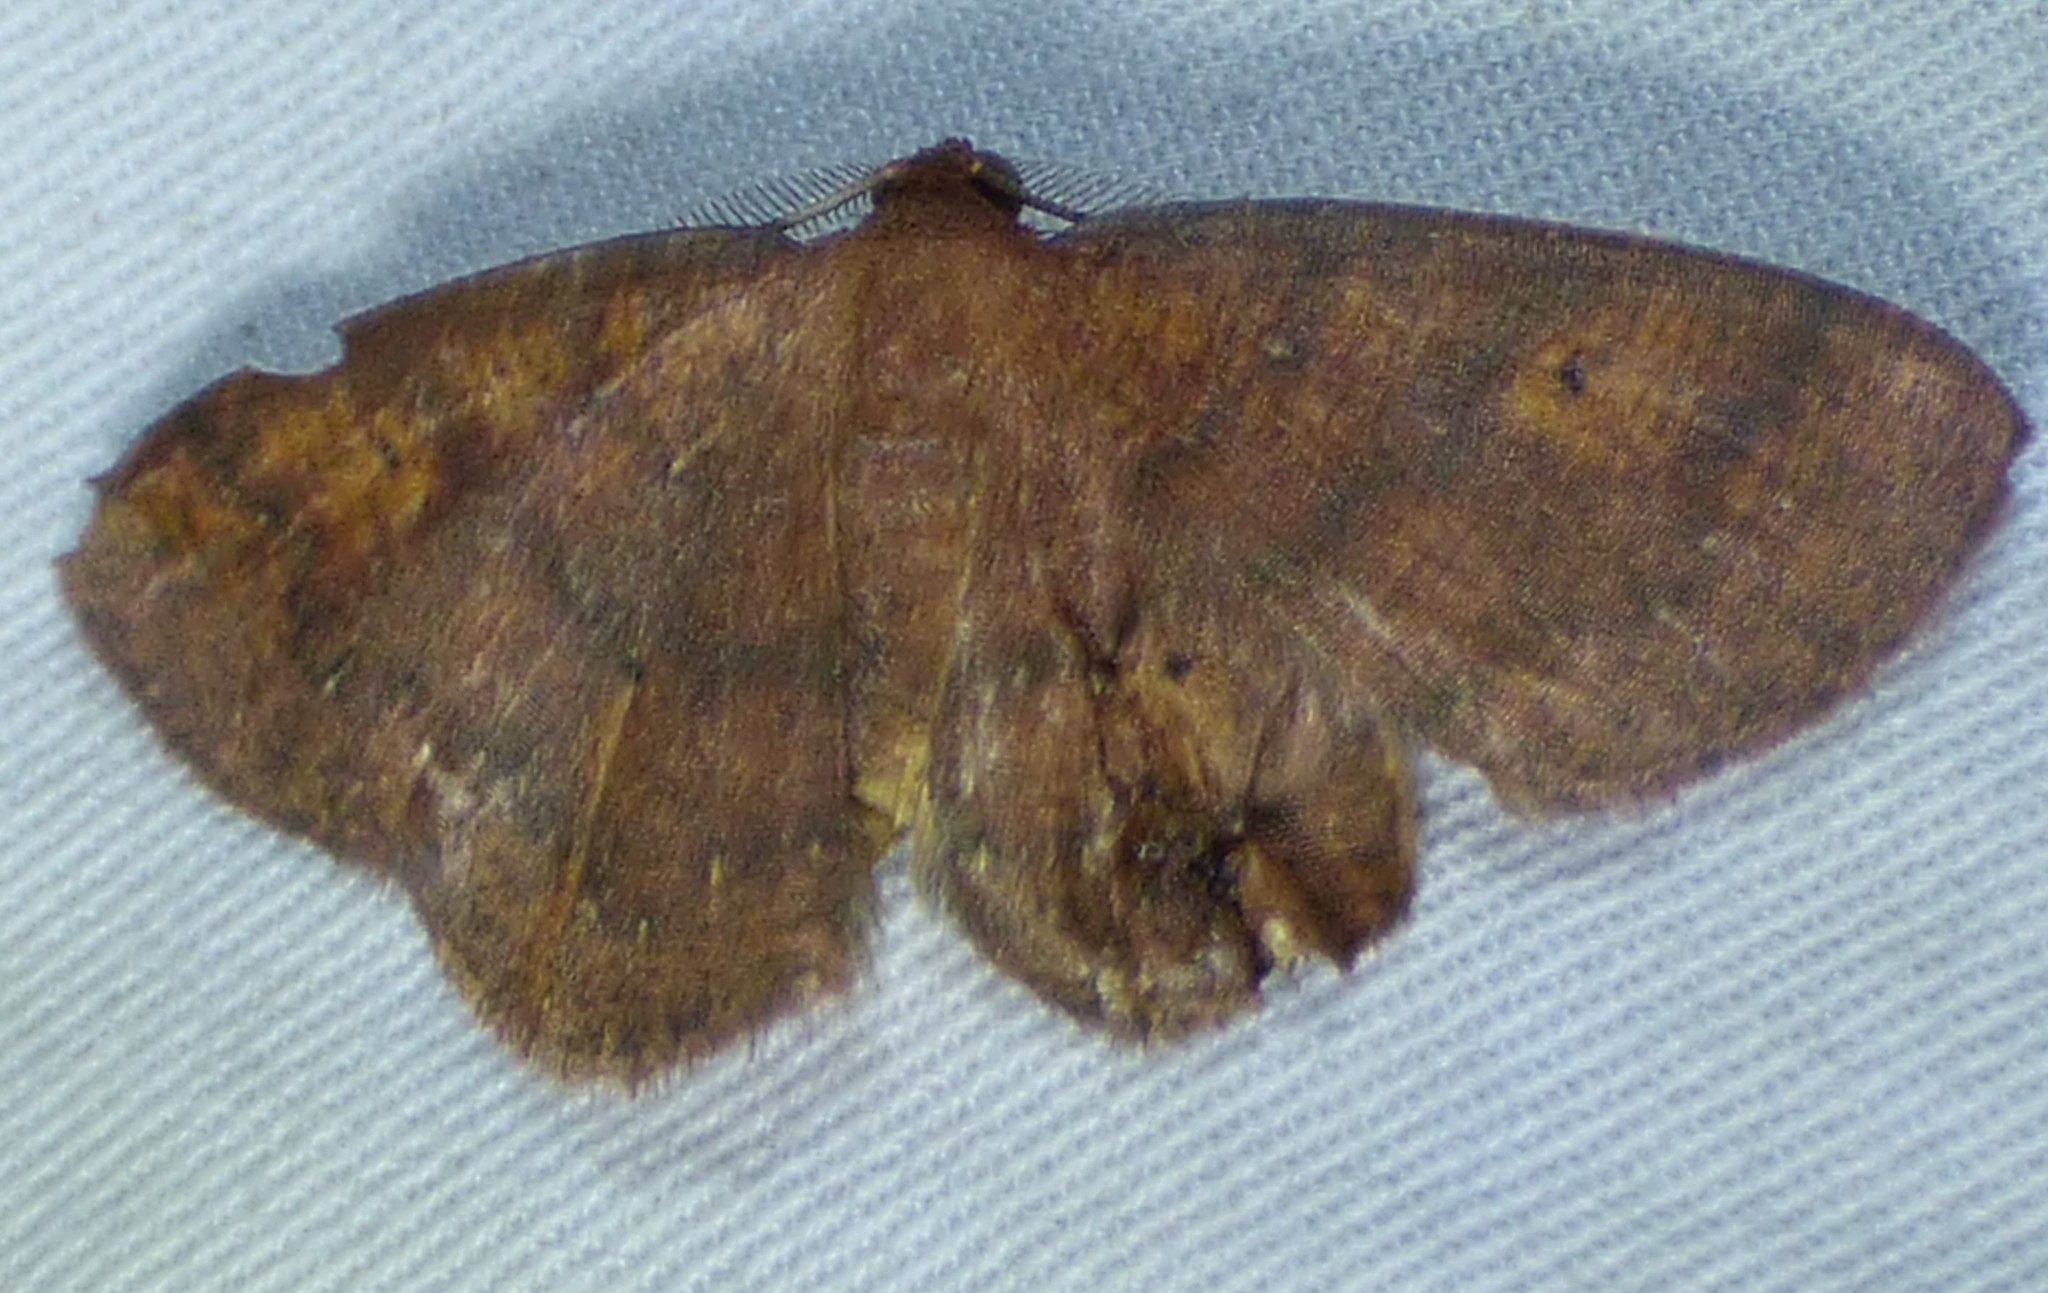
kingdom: Animalia
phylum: Arthropoda
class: Insecta
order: Lepidoptera
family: Geometridae
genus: Ilexia
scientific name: Ilexia intractata
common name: Black-dotted ruddy moth
